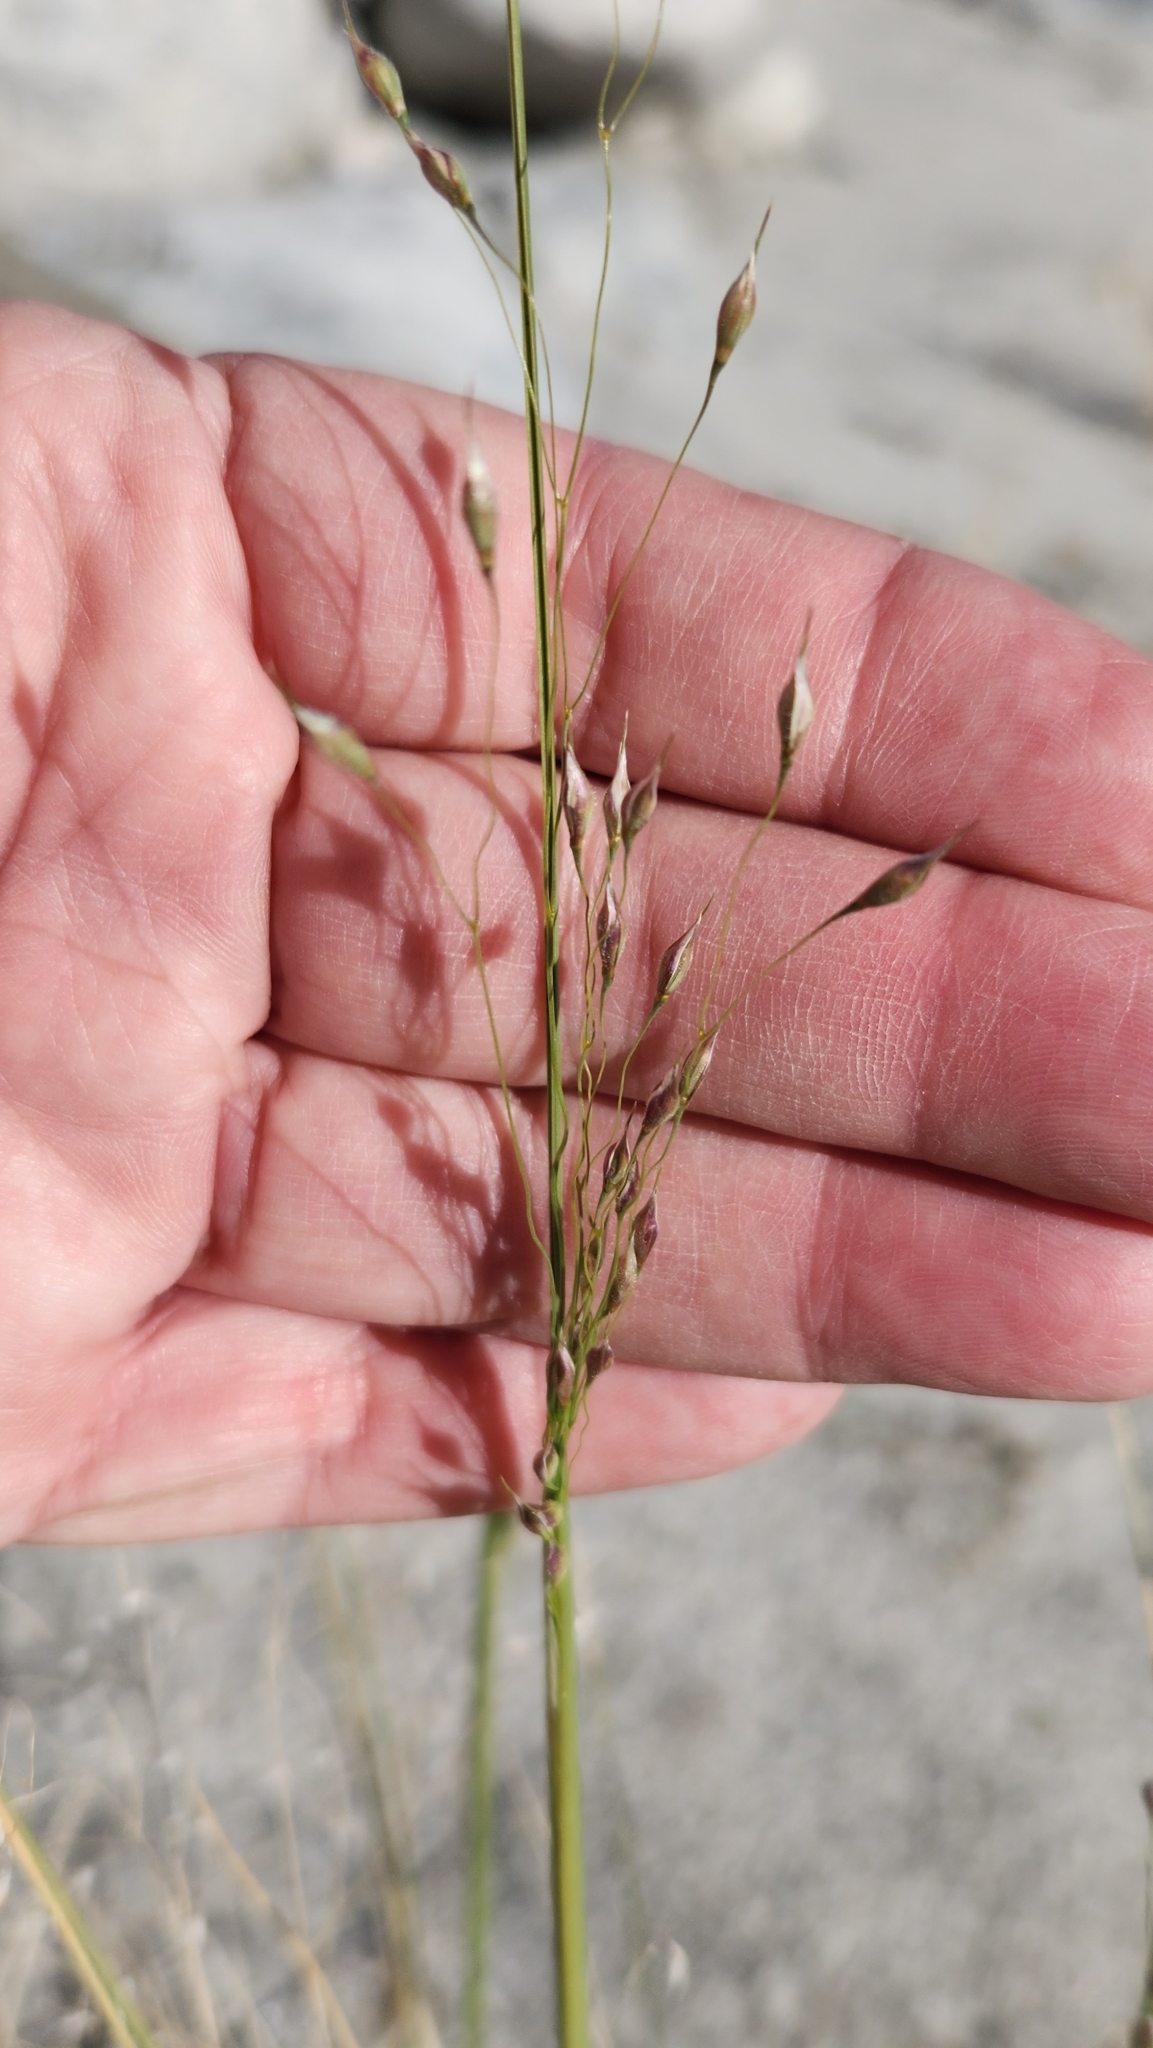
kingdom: Plantae
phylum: Tracheophyta
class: Liliopsida
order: Poales
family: Poaceae
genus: Eriocoma
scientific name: Eriocoma hymenoides
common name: Indian mountain ricegrass
